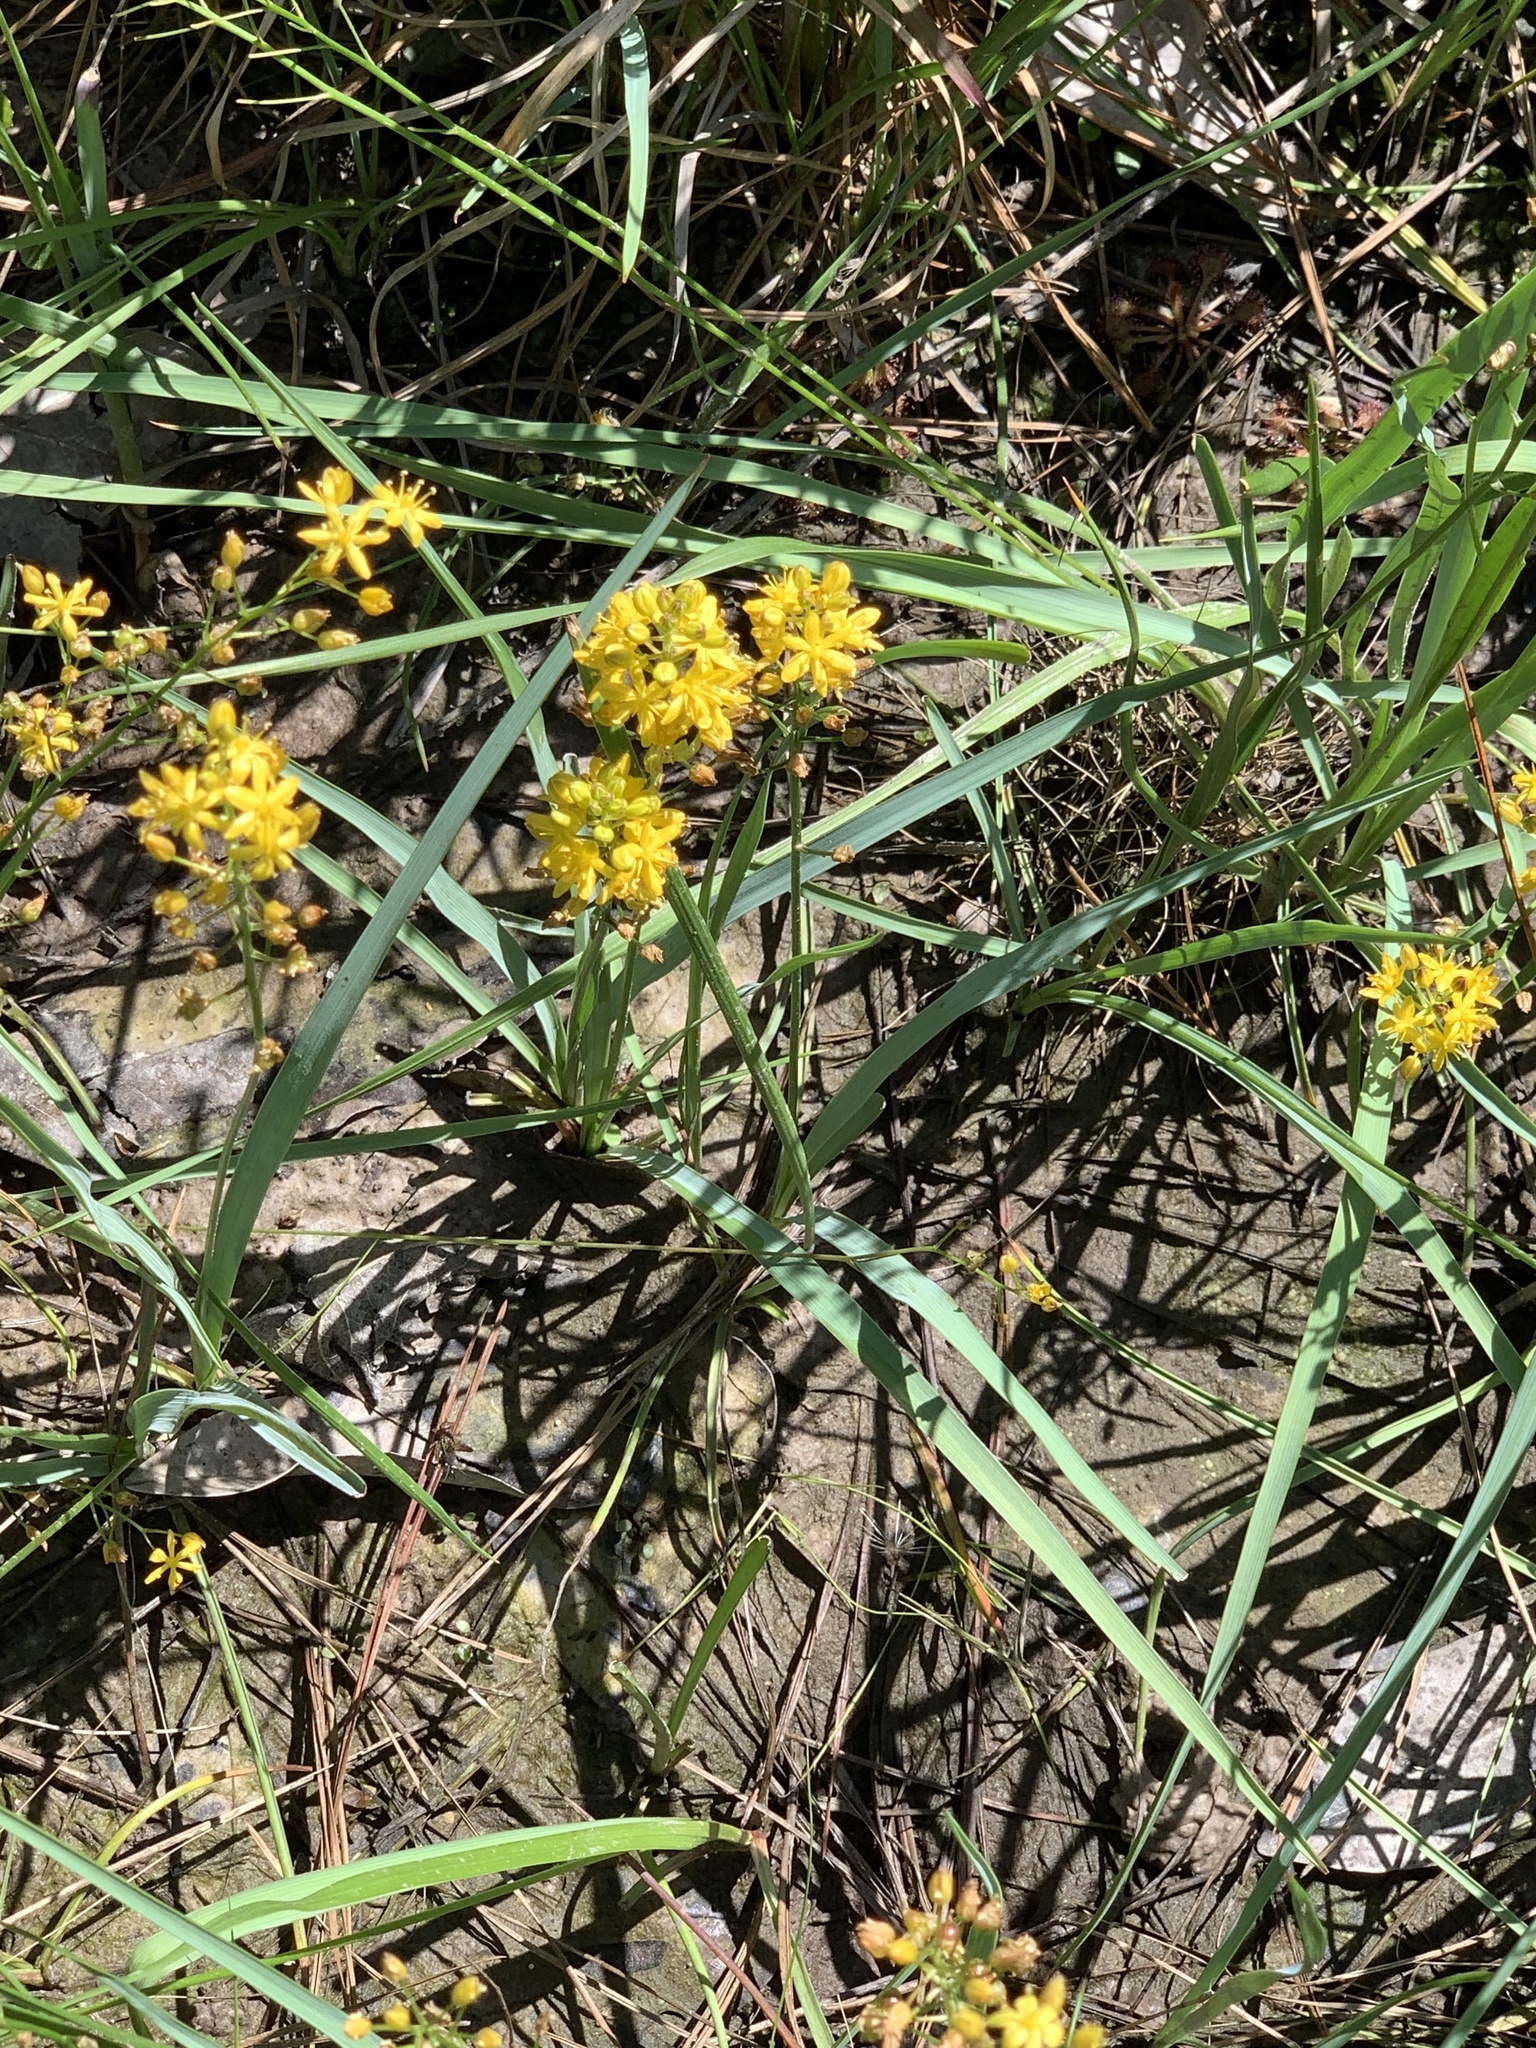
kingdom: Plantae
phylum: Tracheophyta
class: Liliopsida
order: Asparagales
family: Asparagaceae
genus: Schoenolirion
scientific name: Schoenolirion croceum
